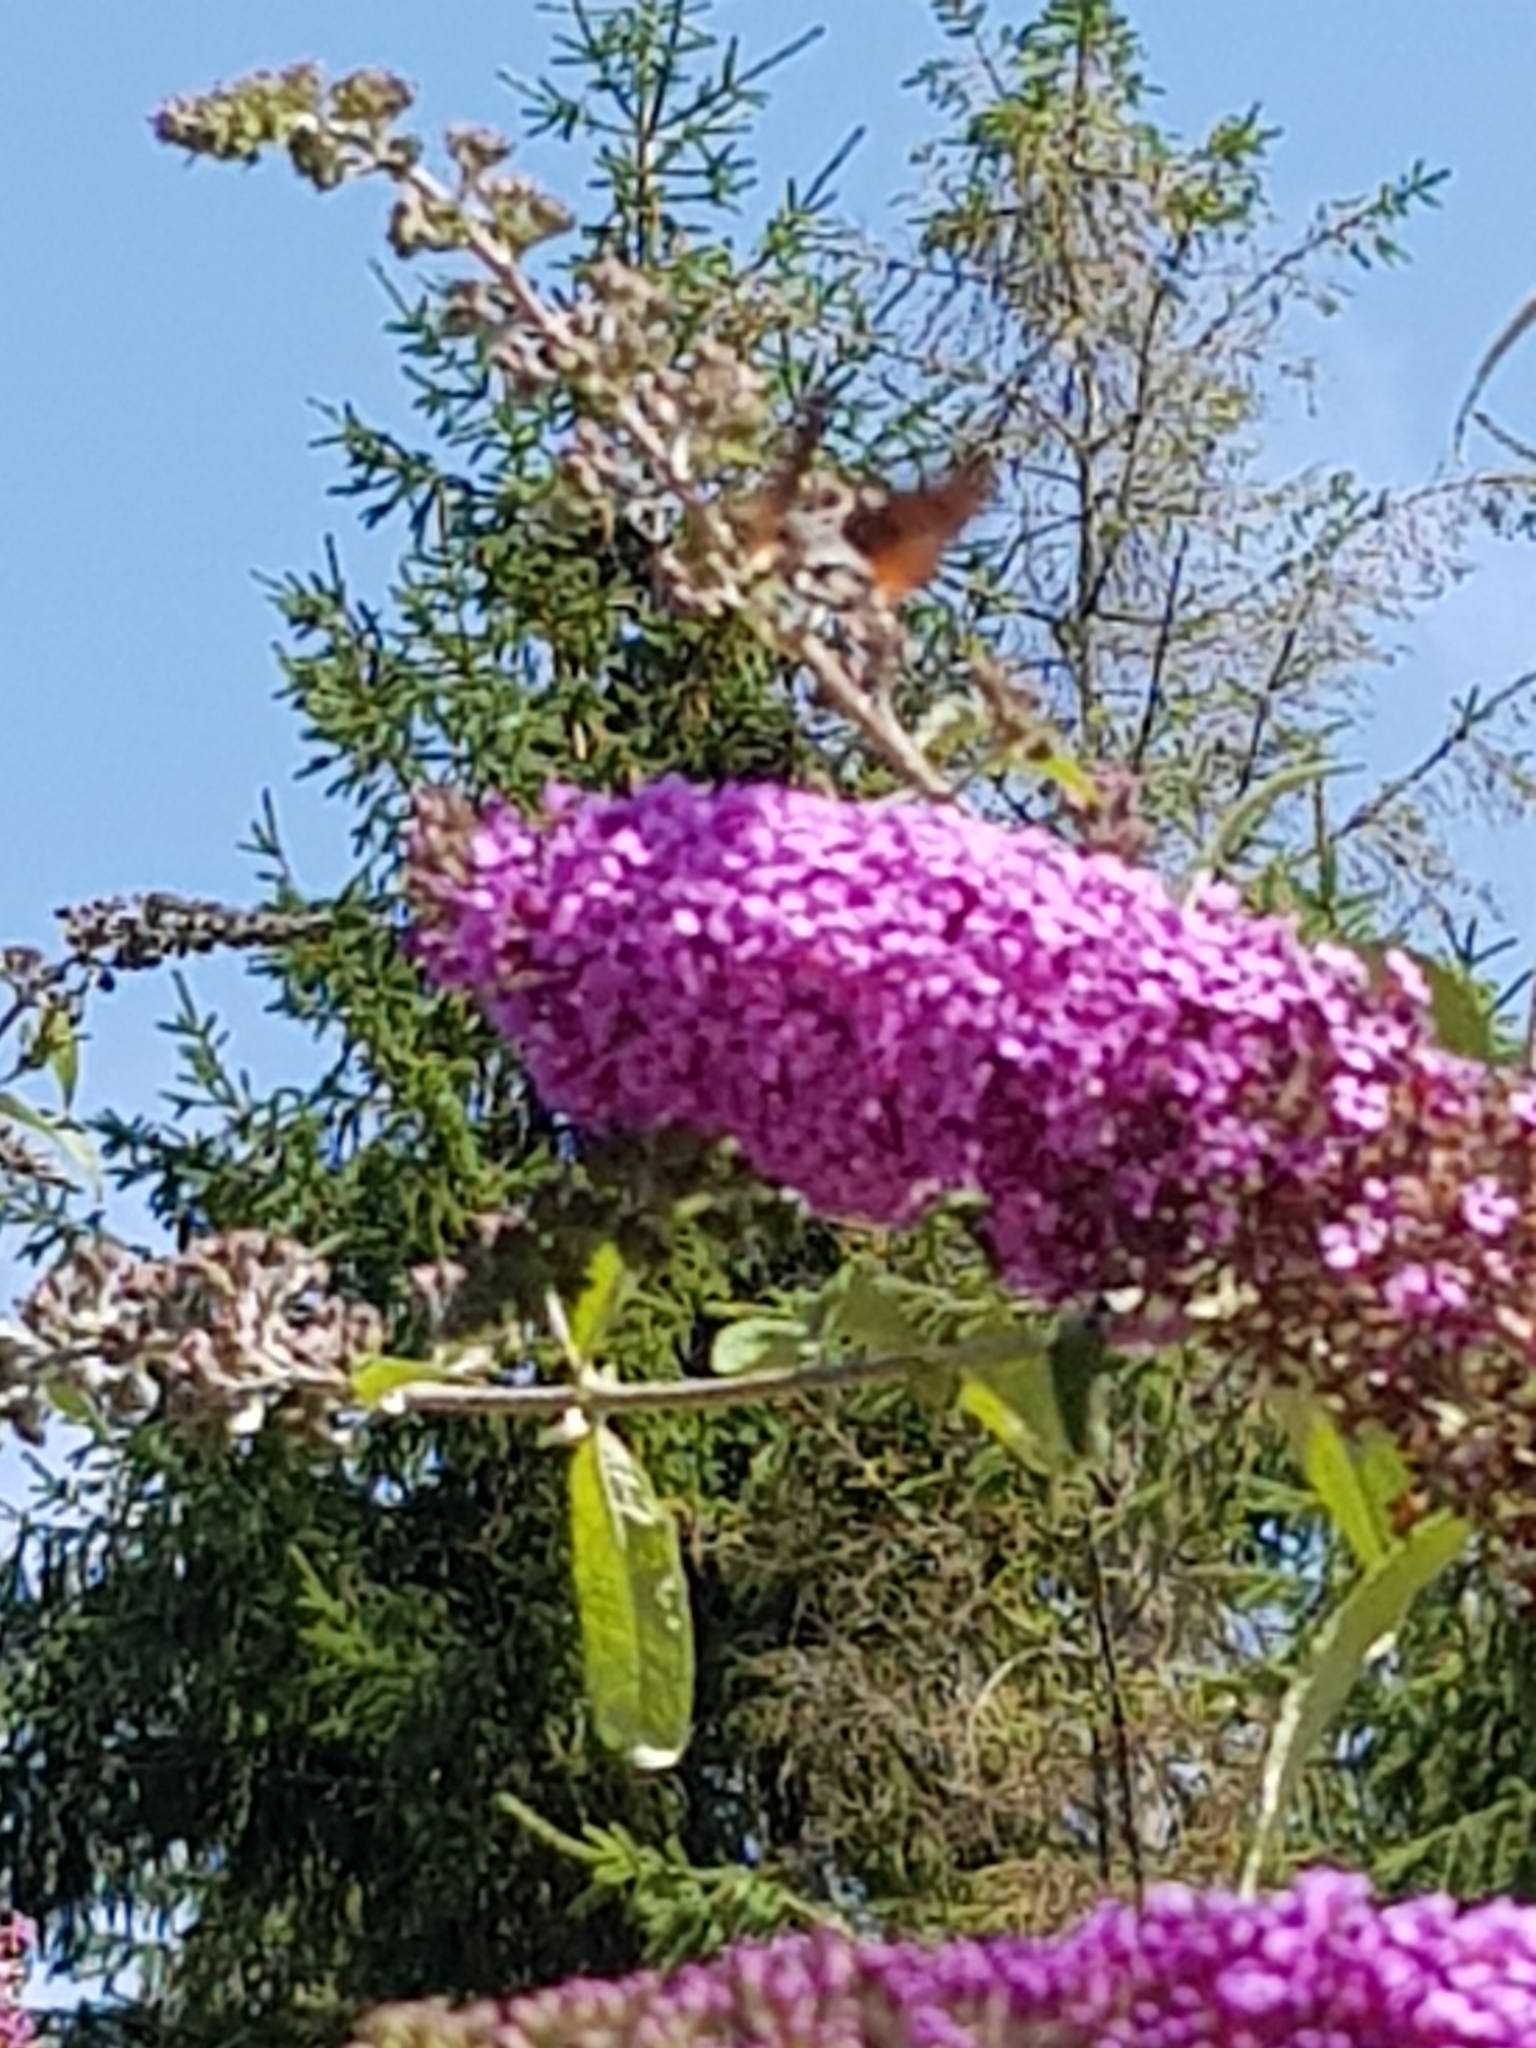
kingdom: Animalia
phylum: Arthropoda
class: Insecta
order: Lepidoptera
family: Sphingidae
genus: Macroglossum
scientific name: Macroglossum stellatarum
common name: Humming-bird hawk-moth
